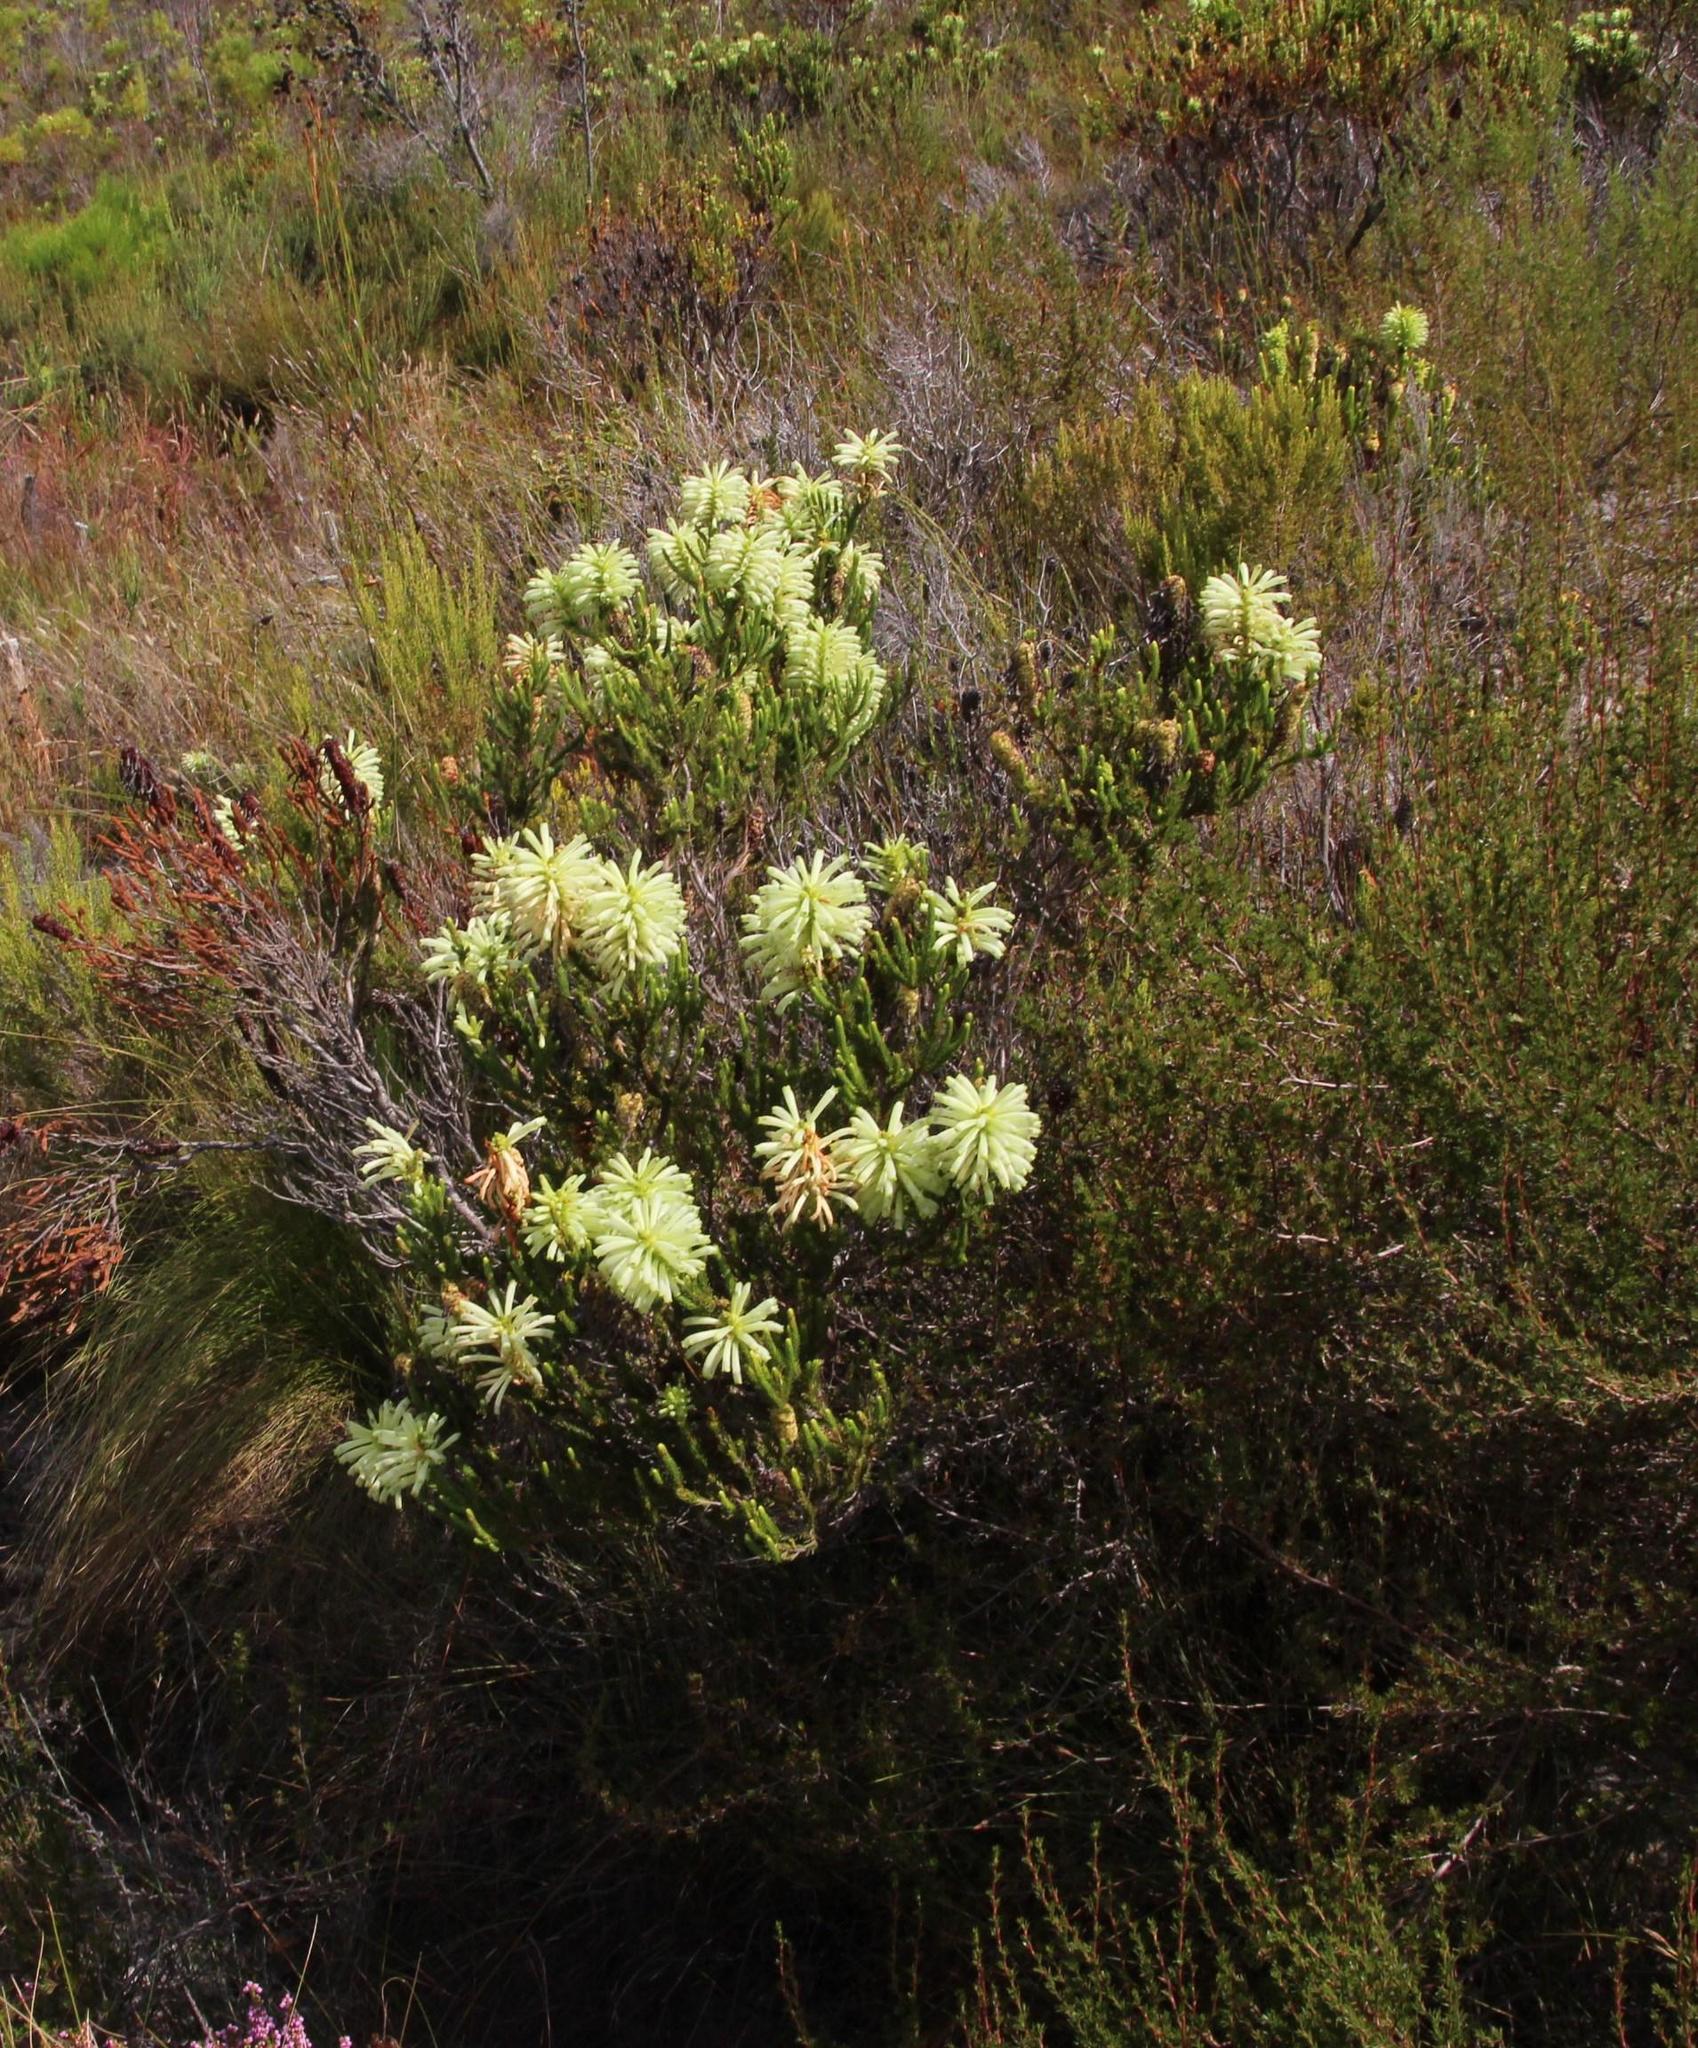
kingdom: Plantae
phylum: Tracheophyta
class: Magnoliopsida
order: Ericales
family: Ericaceae
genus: Erica
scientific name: Erica sessiliflora
